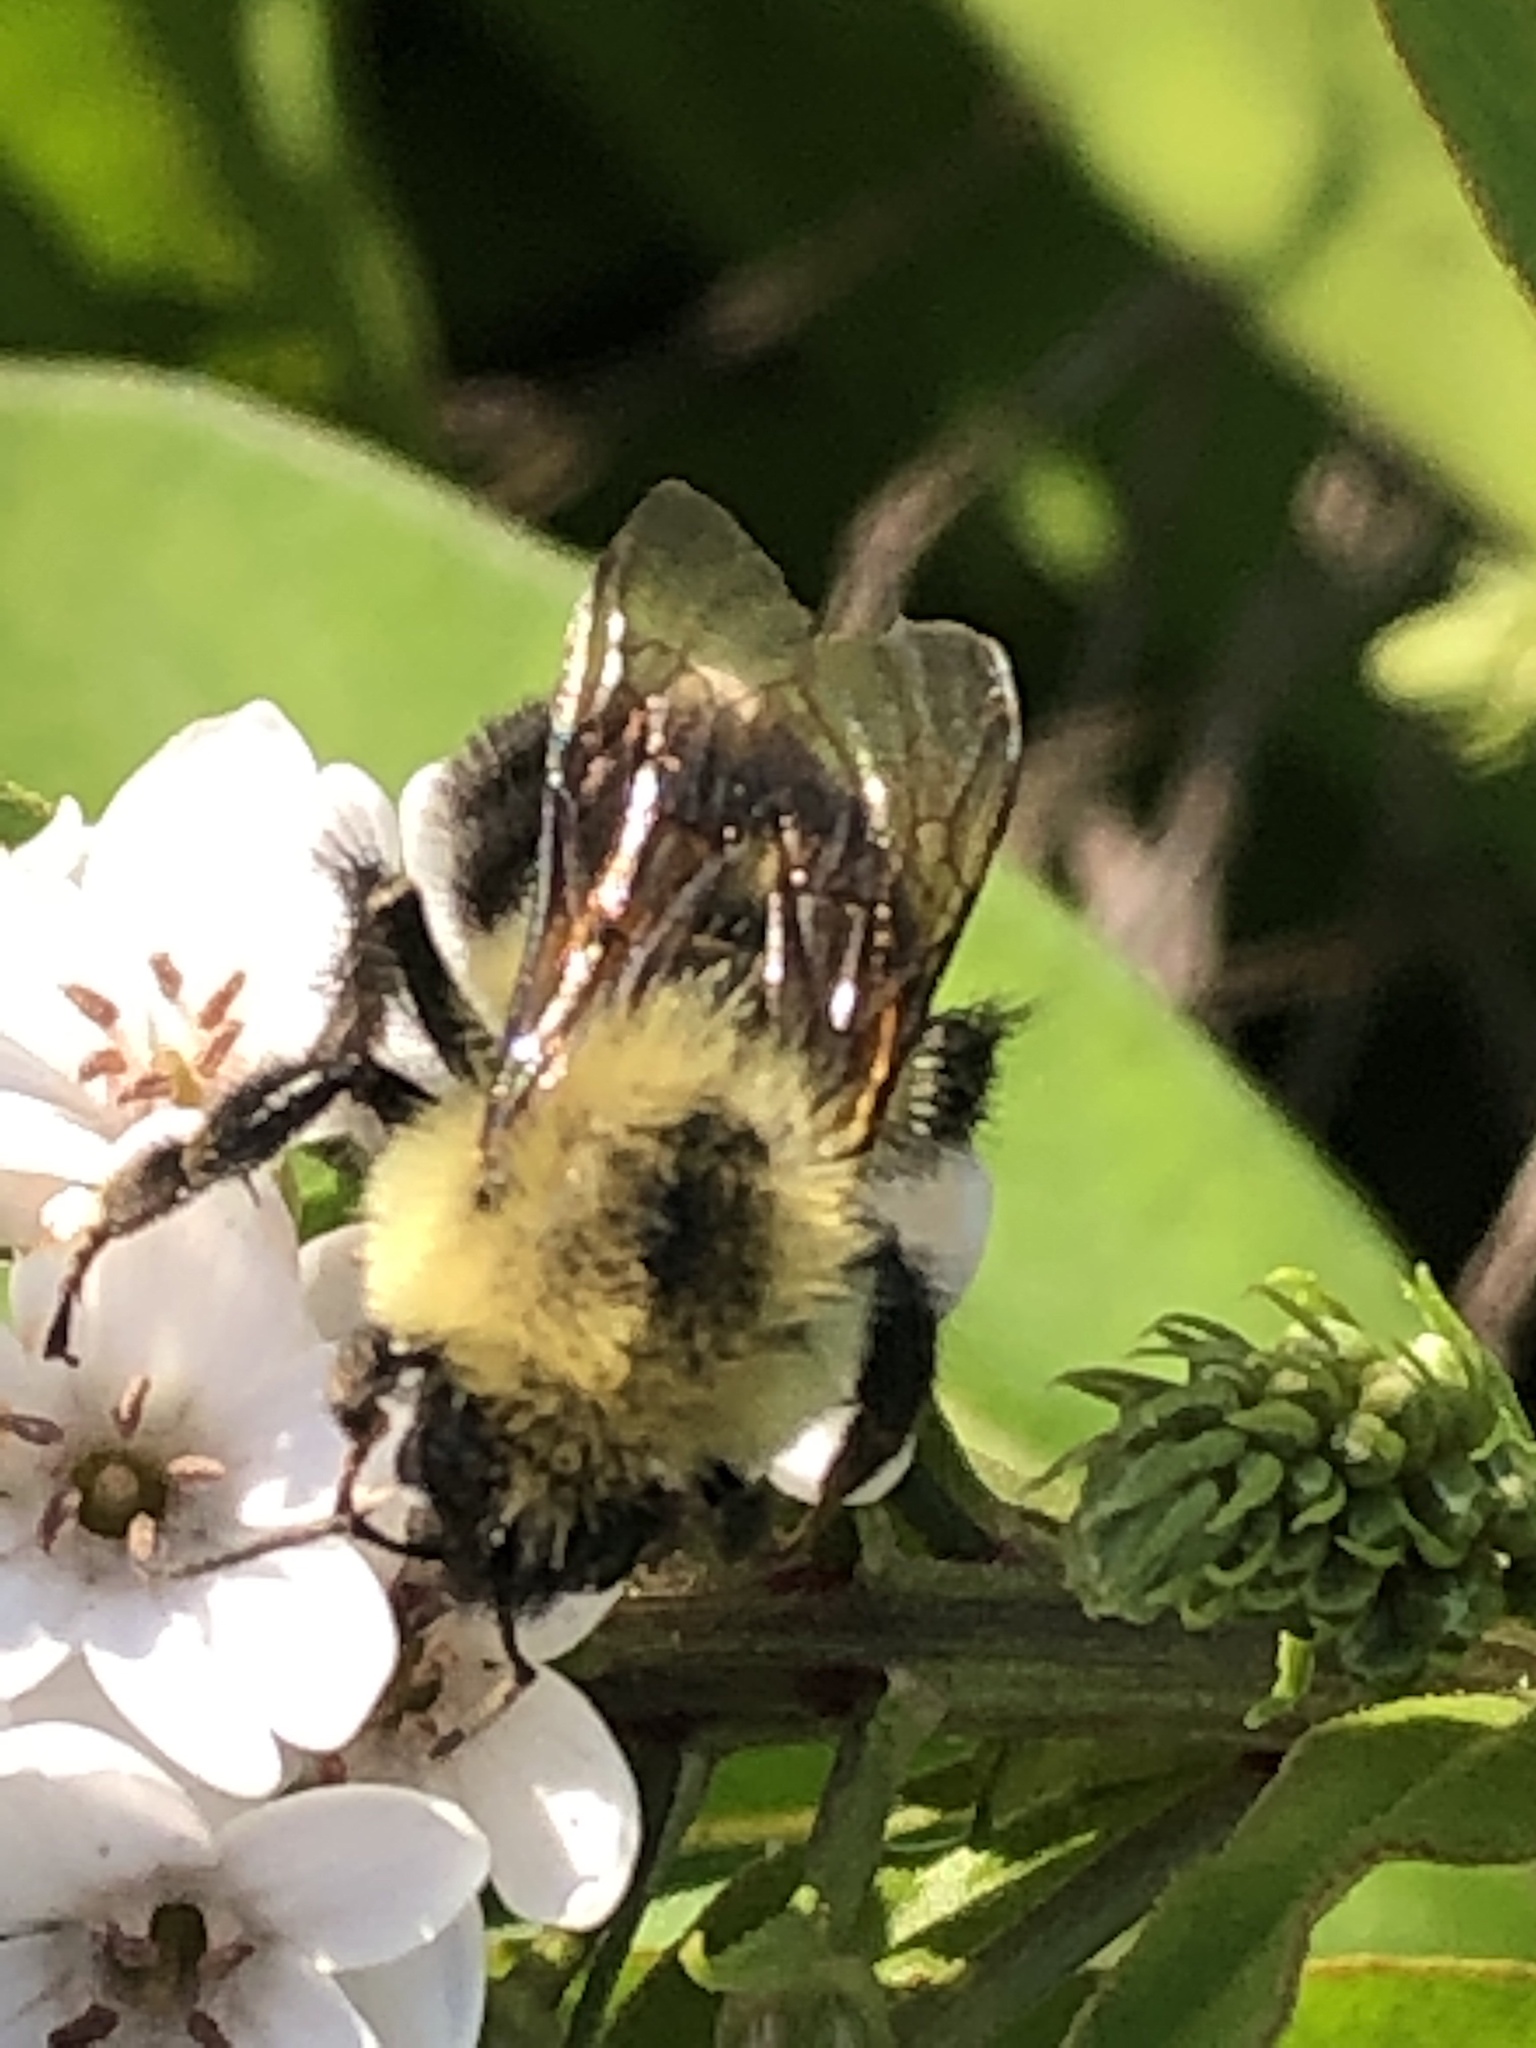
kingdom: Animalia
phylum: Arthropoda
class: Insecta
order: Hymenoptera
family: Apidae
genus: Bombus
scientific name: Bombus bimaculatus
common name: Two-spotted bumble bee
